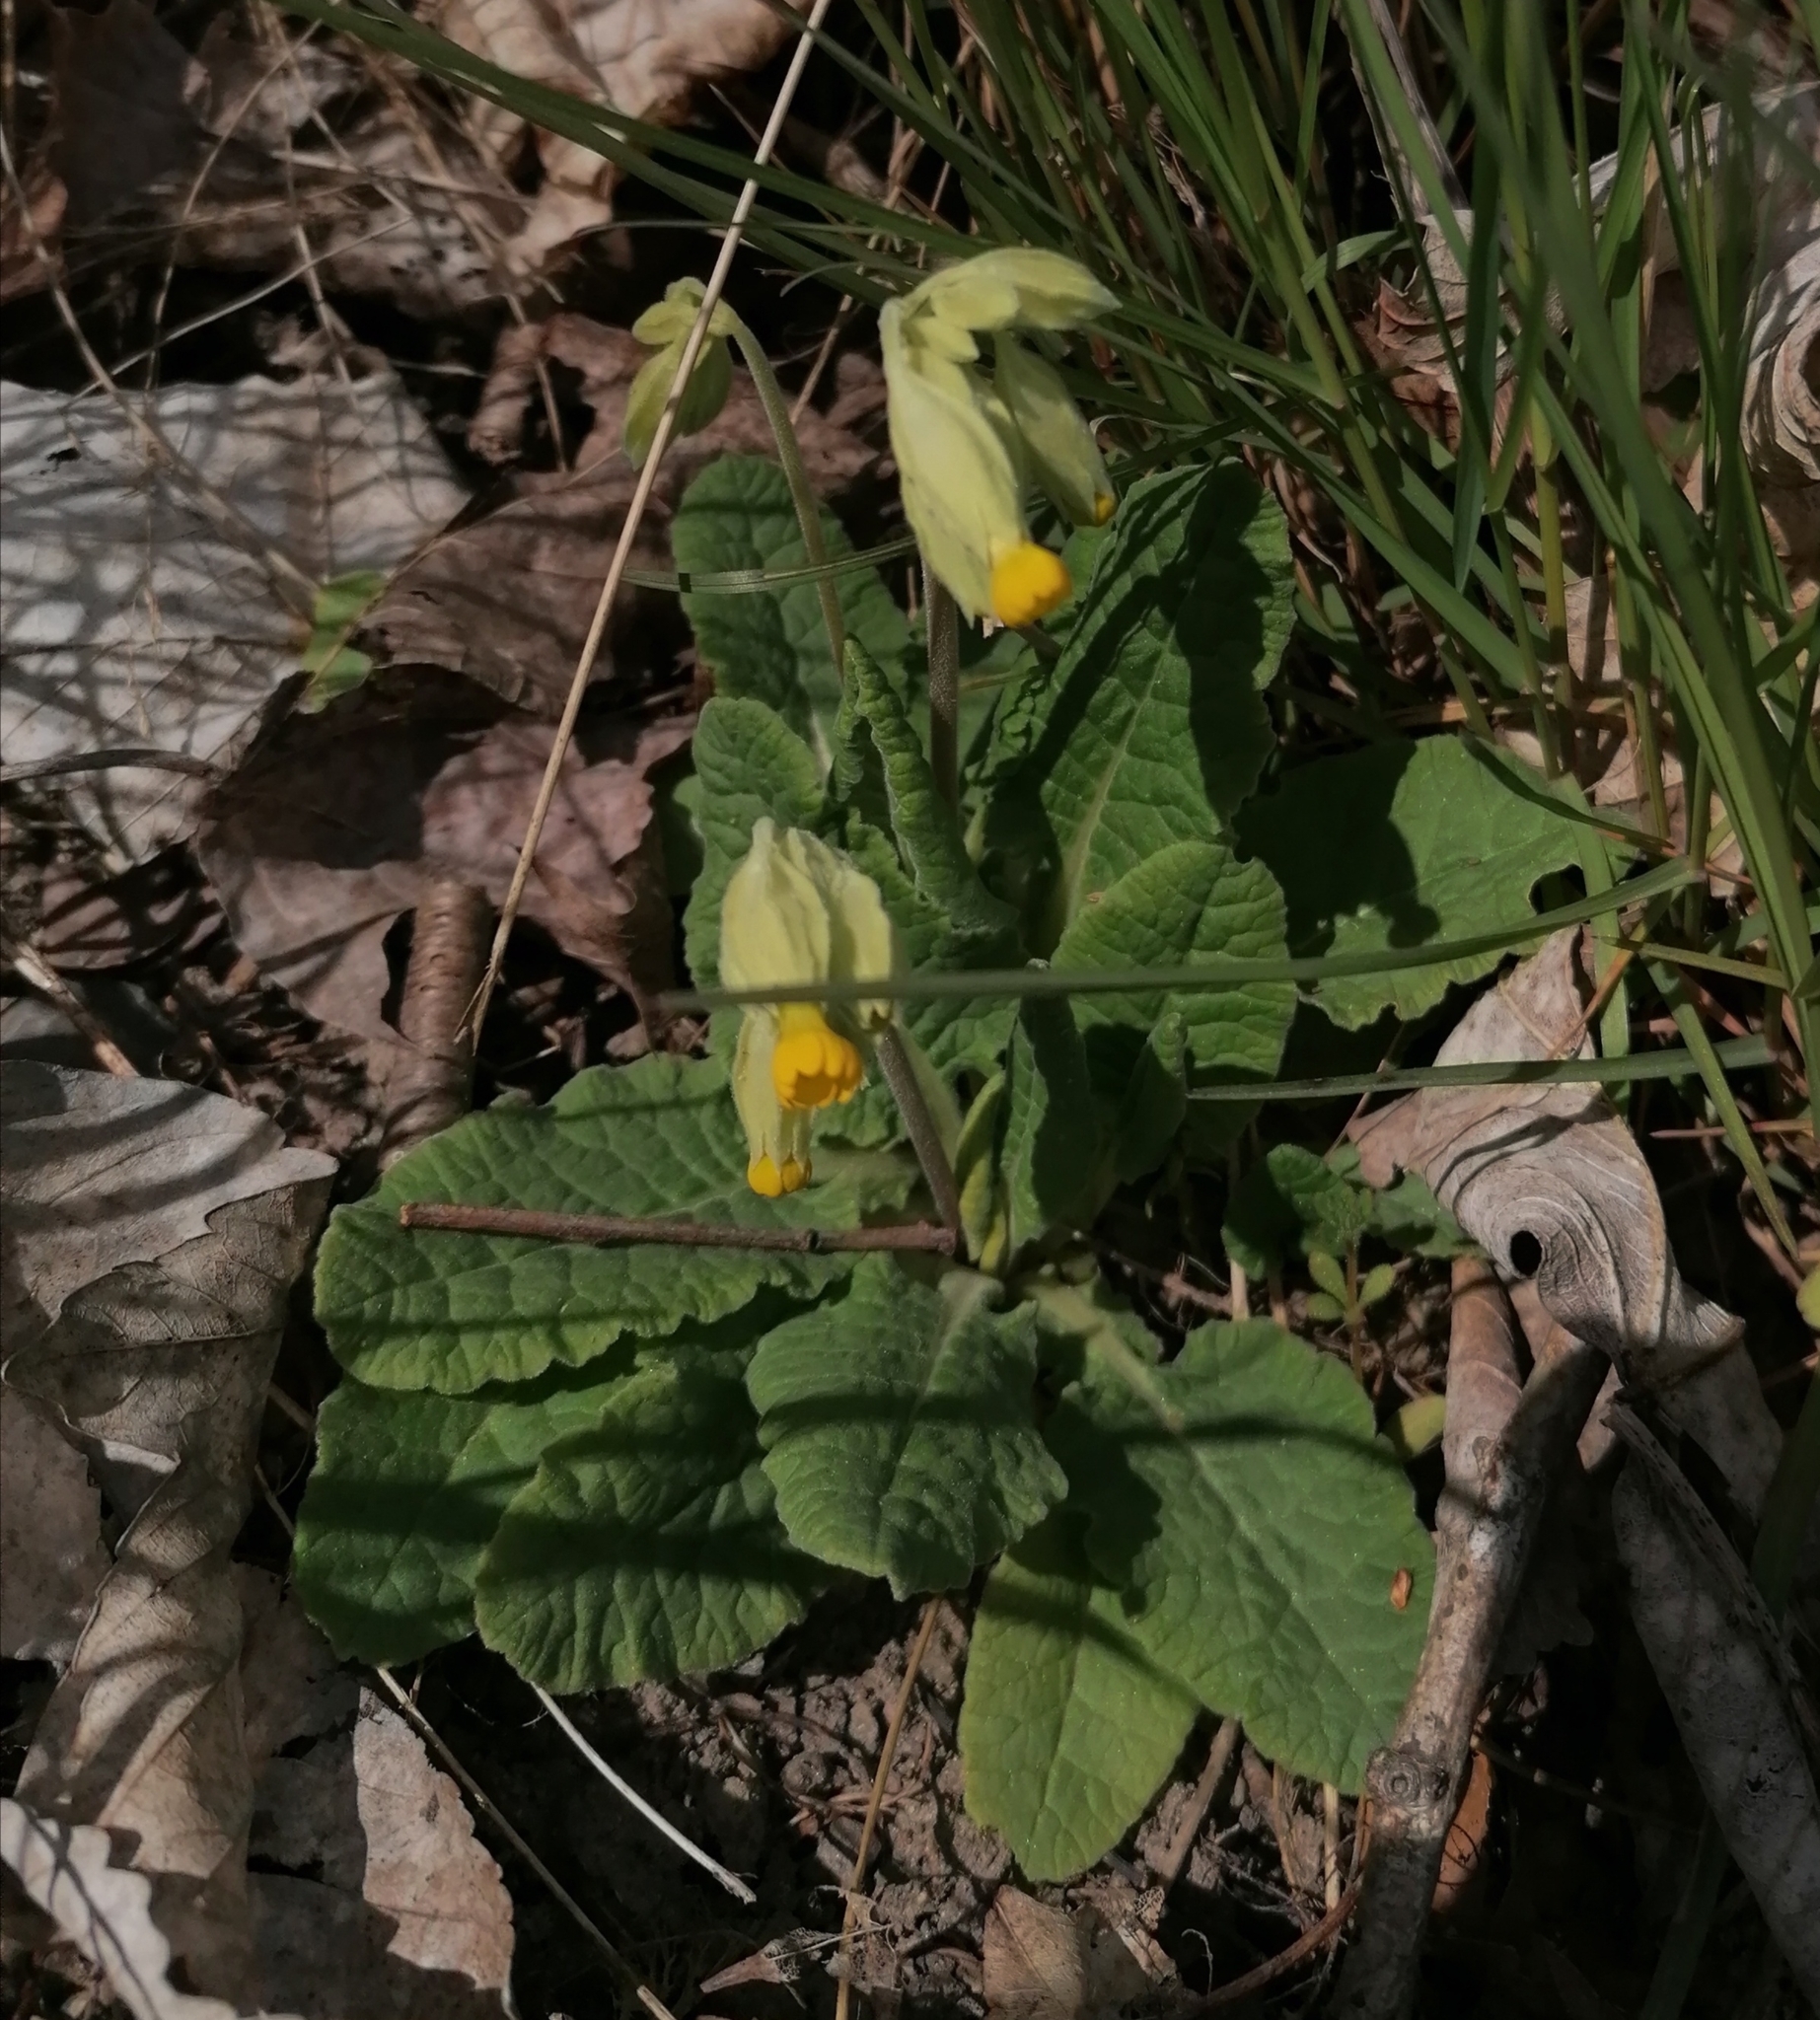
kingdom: Plantae
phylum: Tracheophyta
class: Magnoliopsida
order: Ericales
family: Primulaceae
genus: Primula
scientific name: Primula veris
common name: Cowslip
